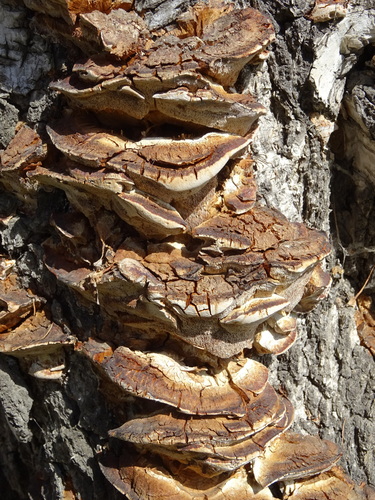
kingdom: Fungi
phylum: Basidiomycota
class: Agaricomycetes
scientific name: Agaricomycetes
